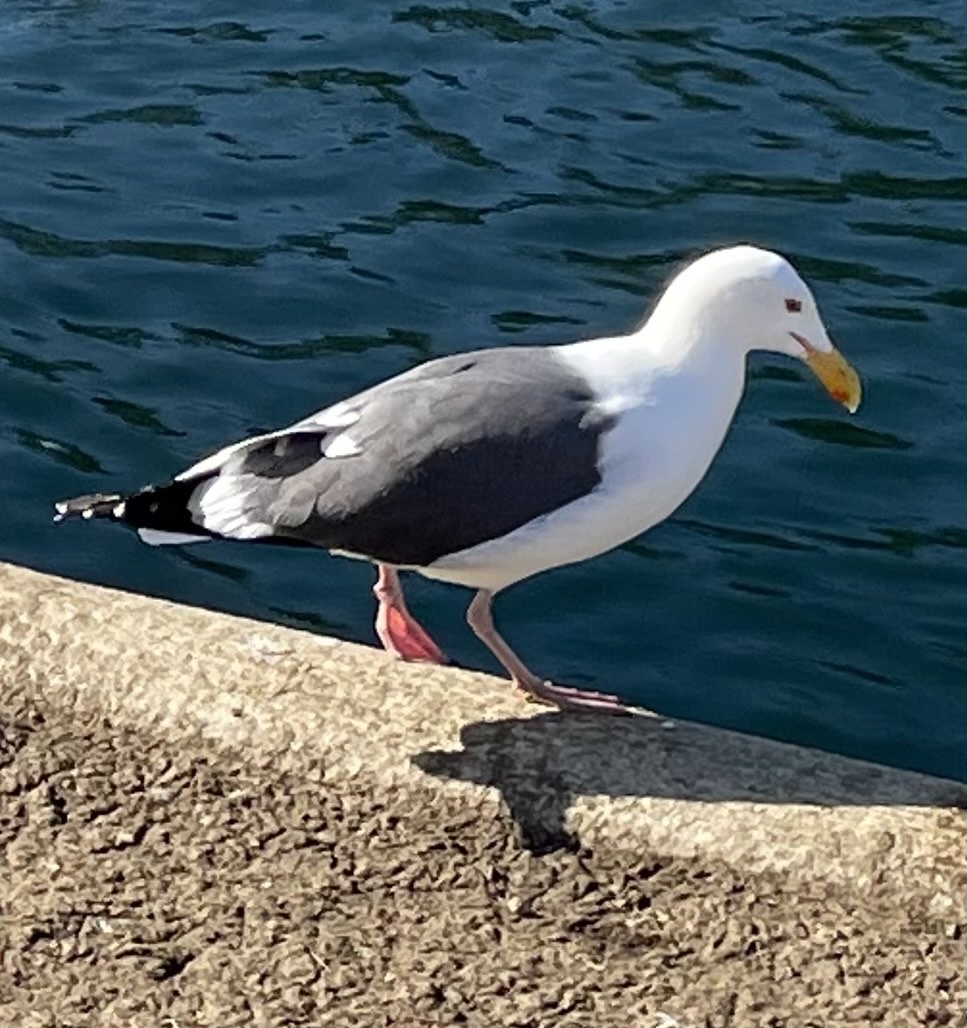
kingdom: Animalia
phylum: Chordata
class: Aves
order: Charadriiformes
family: Laridae
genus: Larus
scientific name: Larus occidentalis
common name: Western gull
